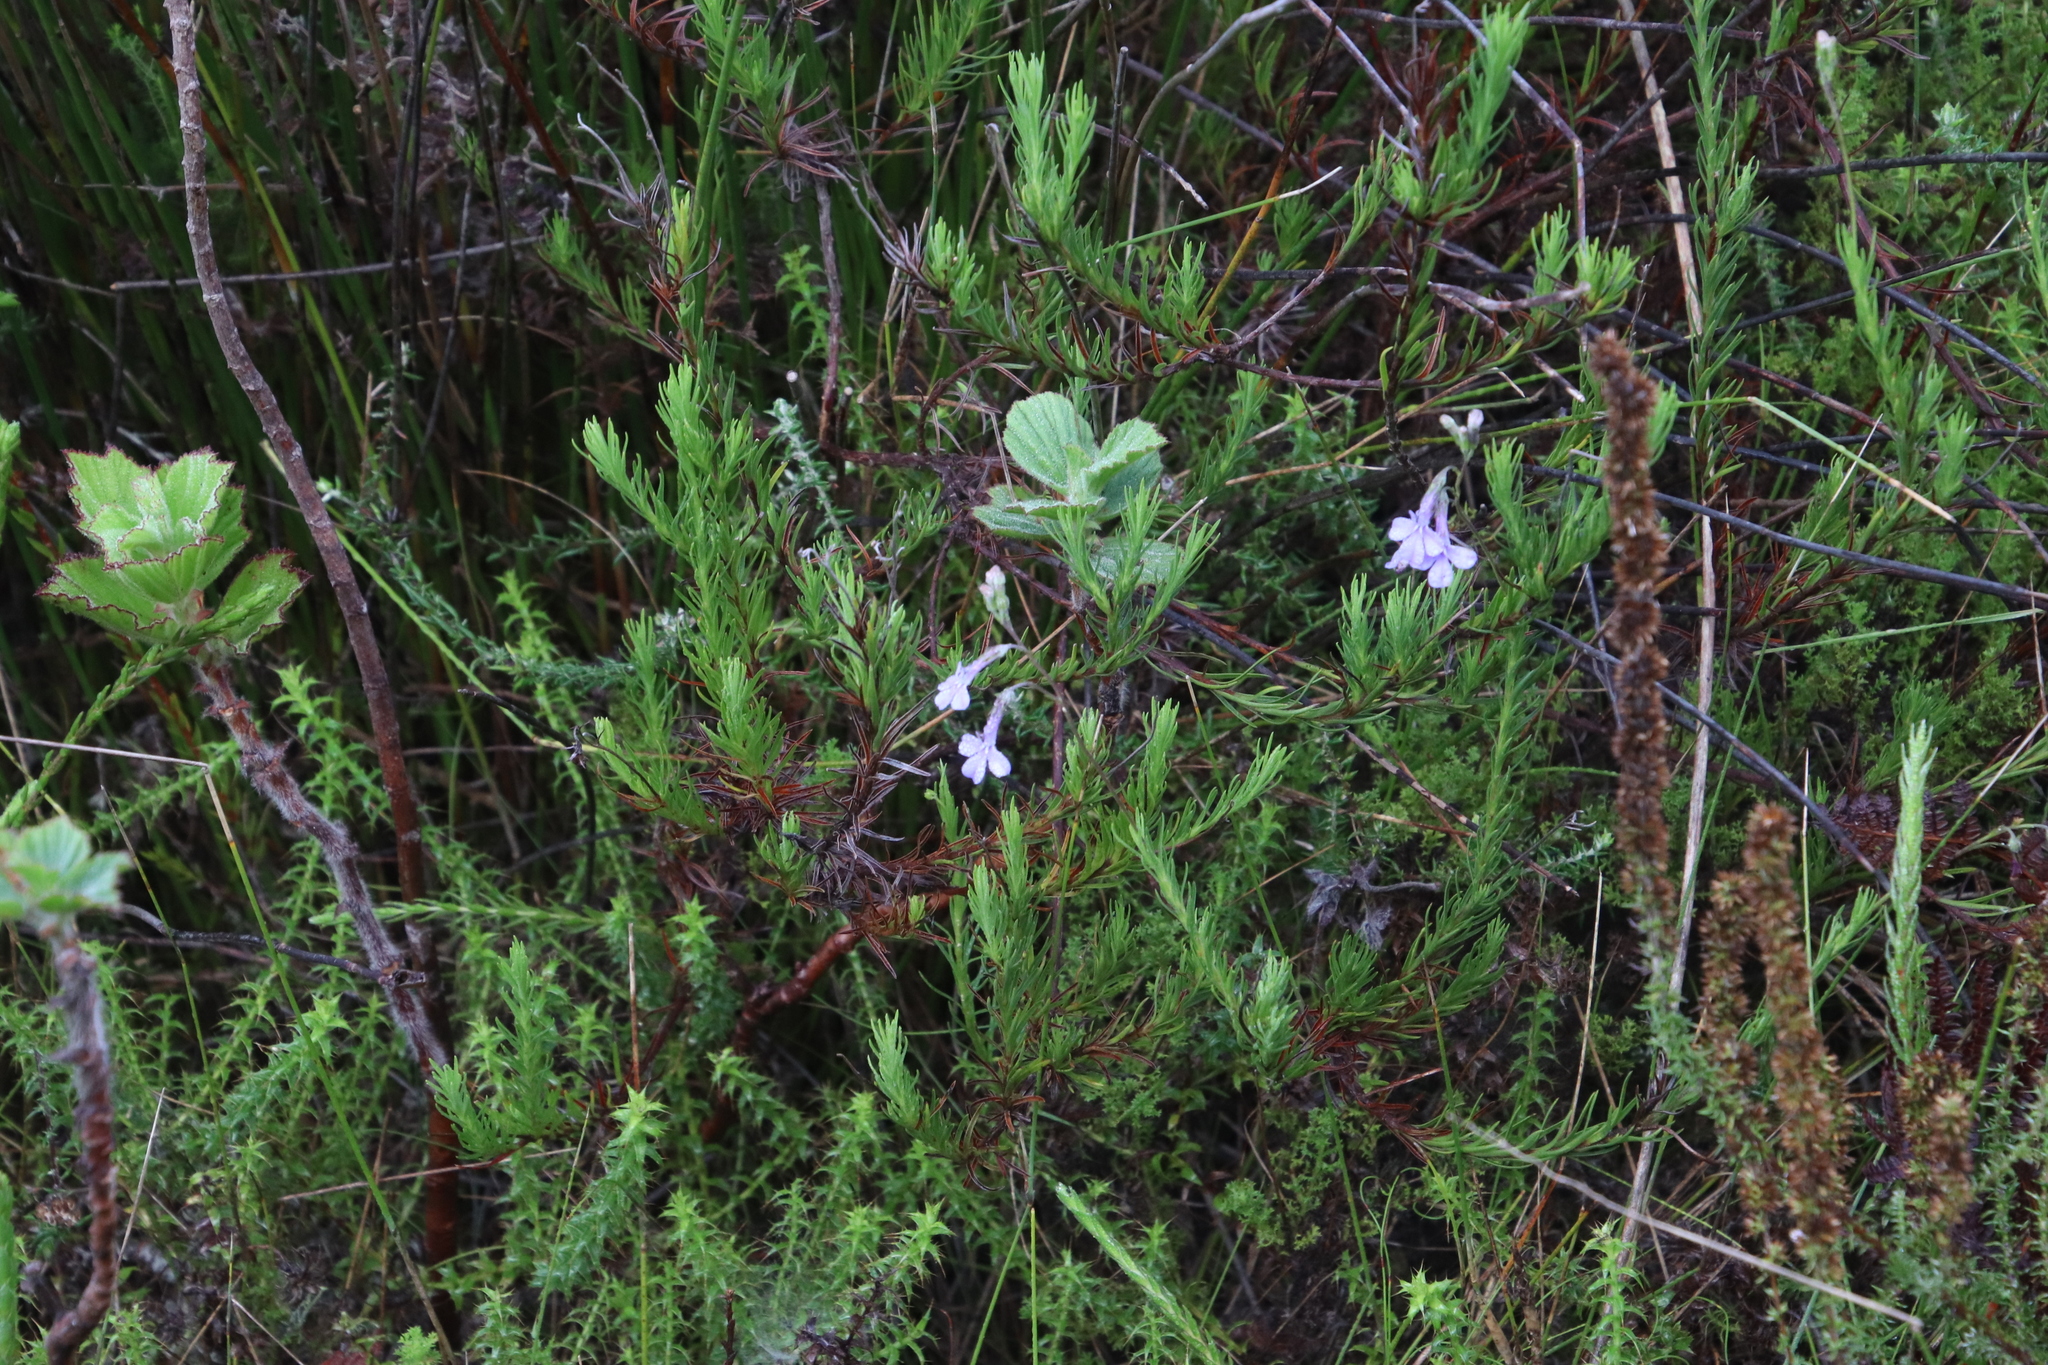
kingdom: Plantae
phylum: Tracheophyta
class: Magnoliopsida
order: Asterales
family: Campanulaceae
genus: Lobelia
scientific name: Lobelia pinifolia
